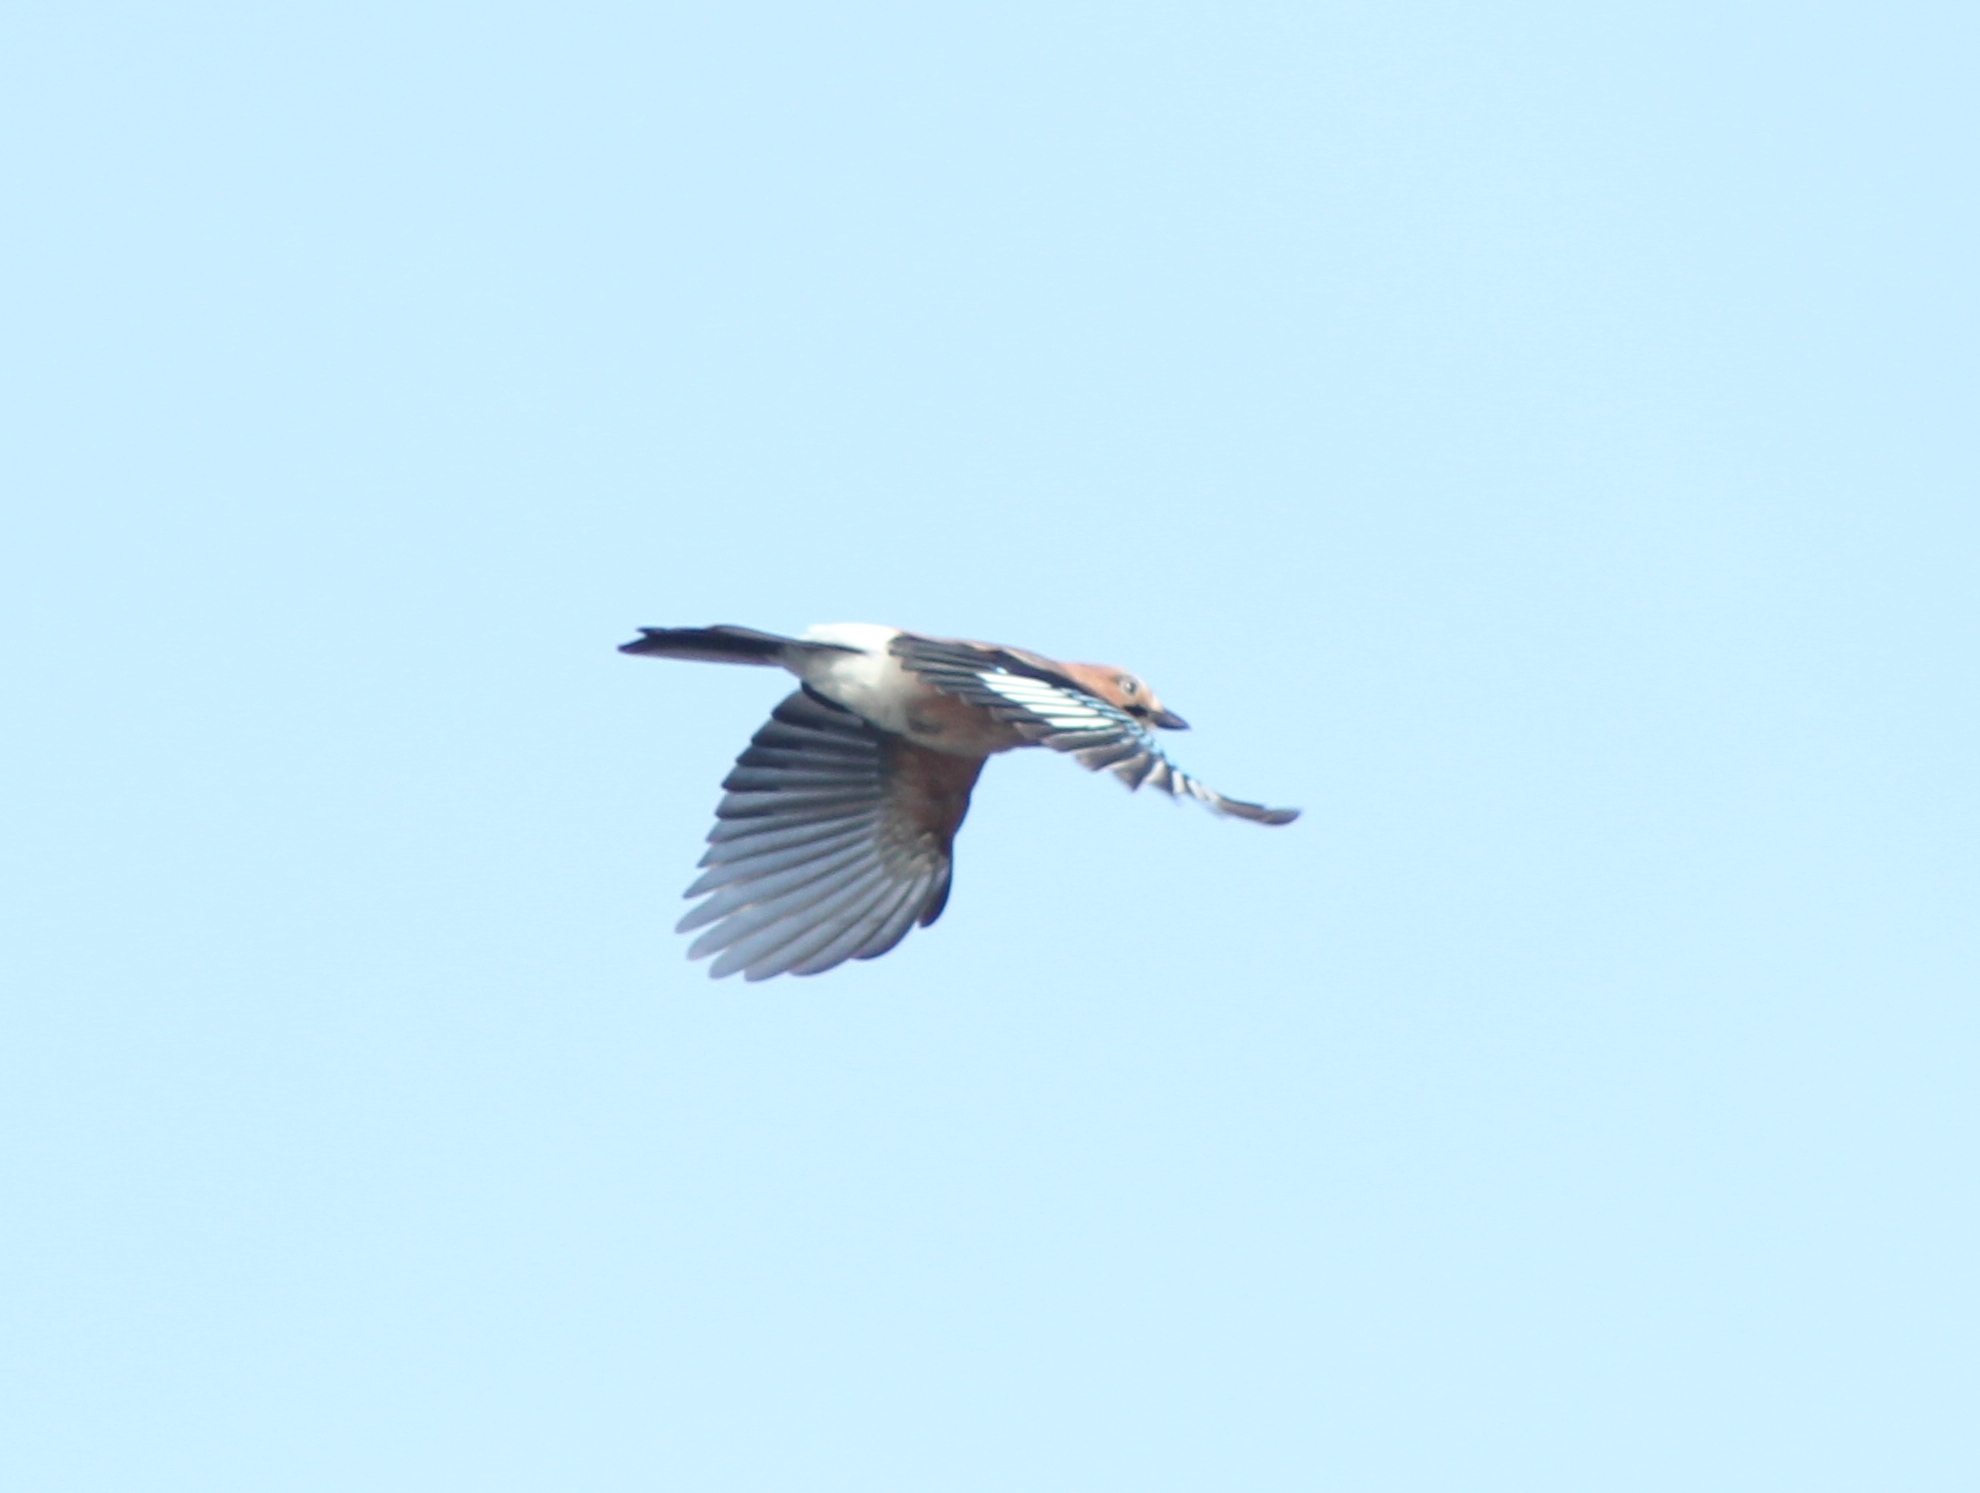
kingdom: Animalia
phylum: Chordata
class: Aves
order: Passeriformes
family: Corvidae
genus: Garrulus
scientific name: Garrulus glandarius
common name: Eurasian jay
